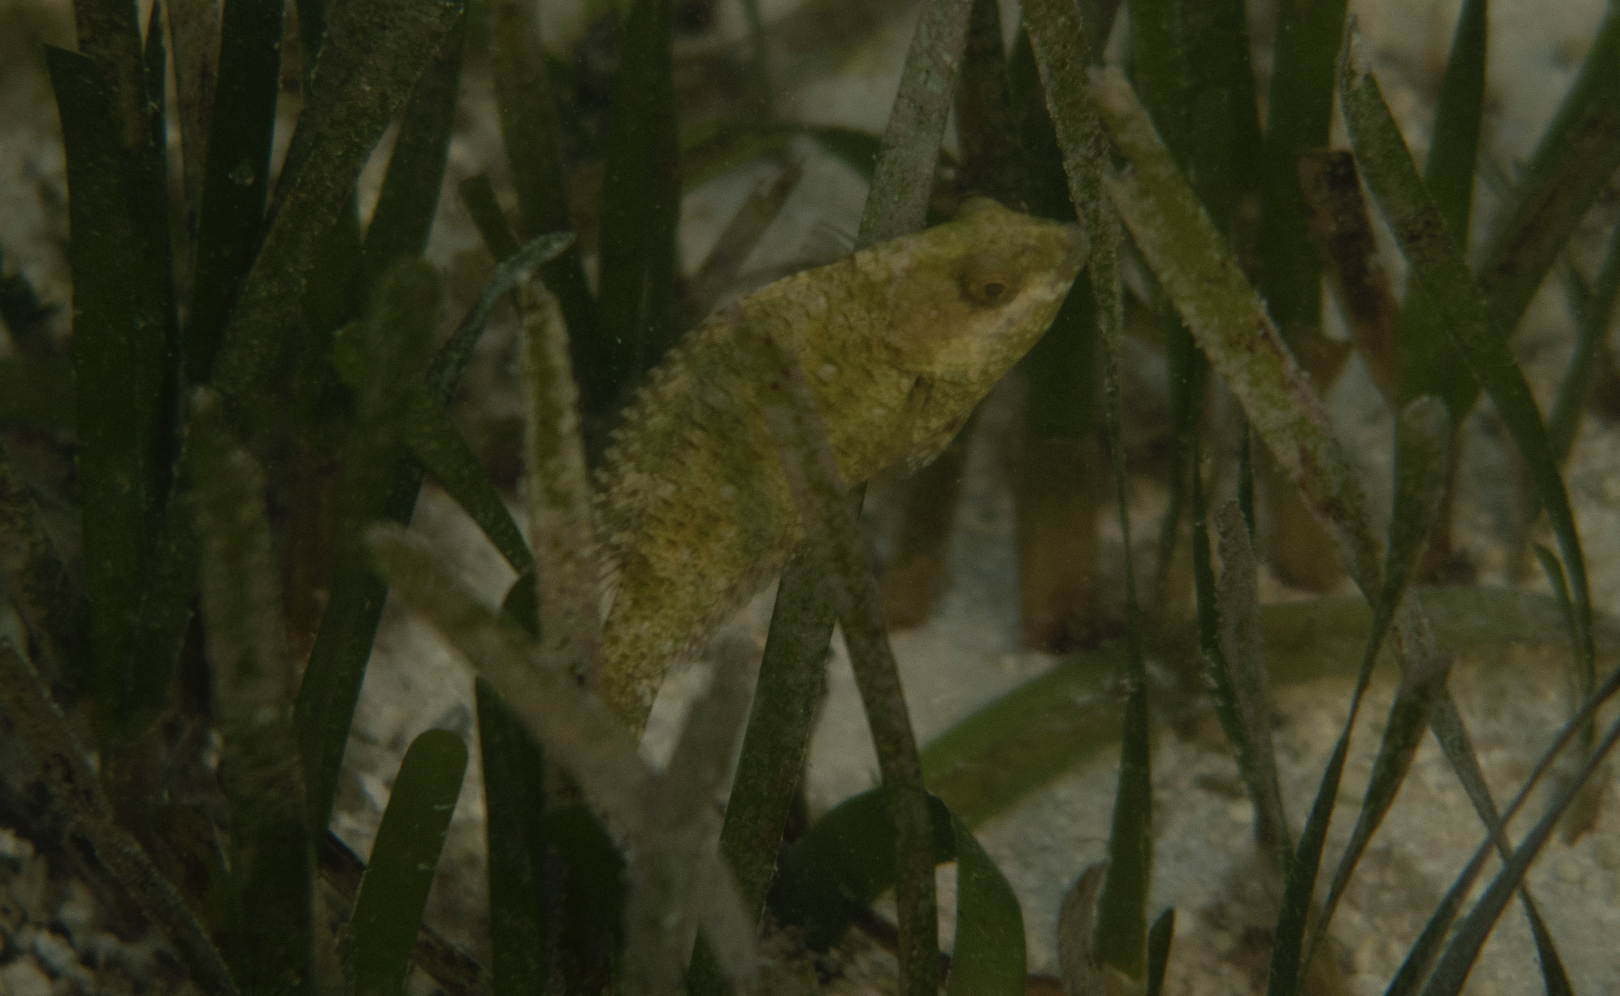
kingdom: Animalia
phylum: Chordata
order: Perciformes
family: Scaridae
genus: Calotomus
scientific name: Calotomus spinidens
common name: Raggedtooth parrotfish
